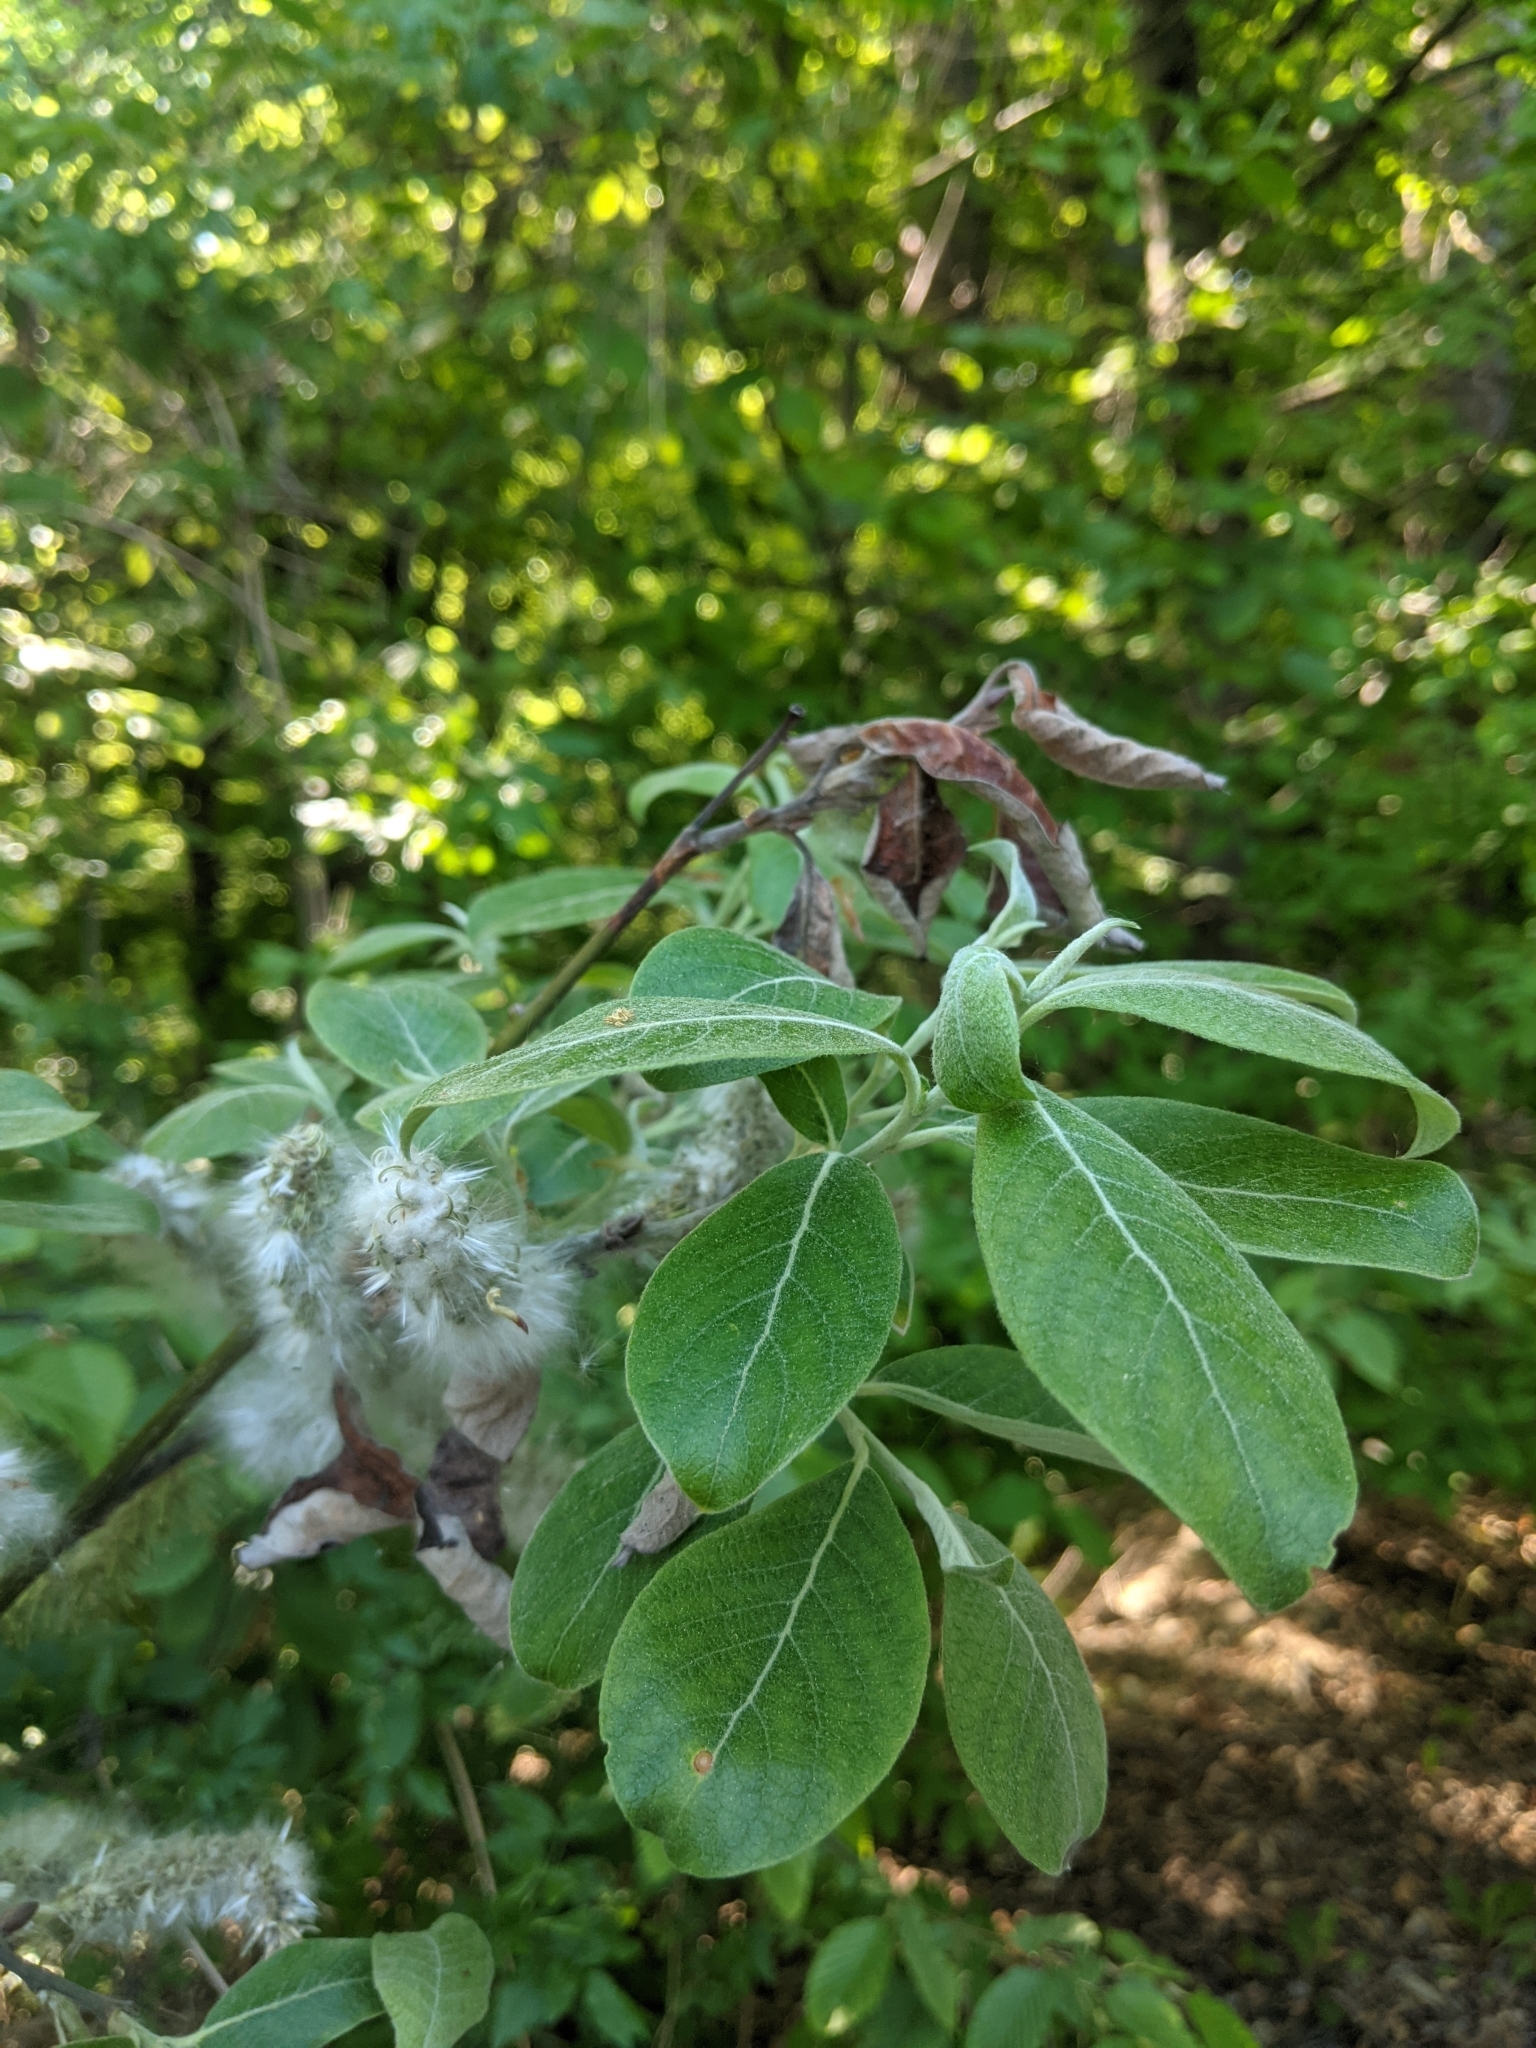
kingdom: Plantae
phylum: Tracheophyta
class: Magnoliopsida
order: Malpighiales
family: Salicaceae
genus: Salix
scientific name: Salix caprea
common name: Goat willow
